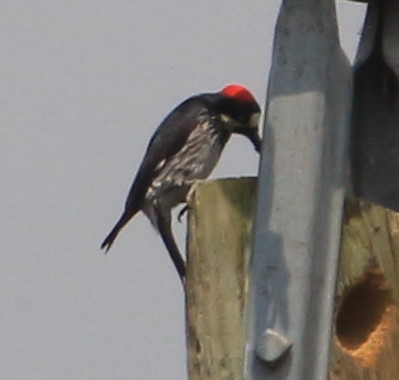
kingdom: Animalia
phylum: Chordata
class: Aves
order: Piciformes
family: Picidae
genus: Melanerpes
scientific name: Melanerpes formicivorus
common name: Acorn woodpecker
